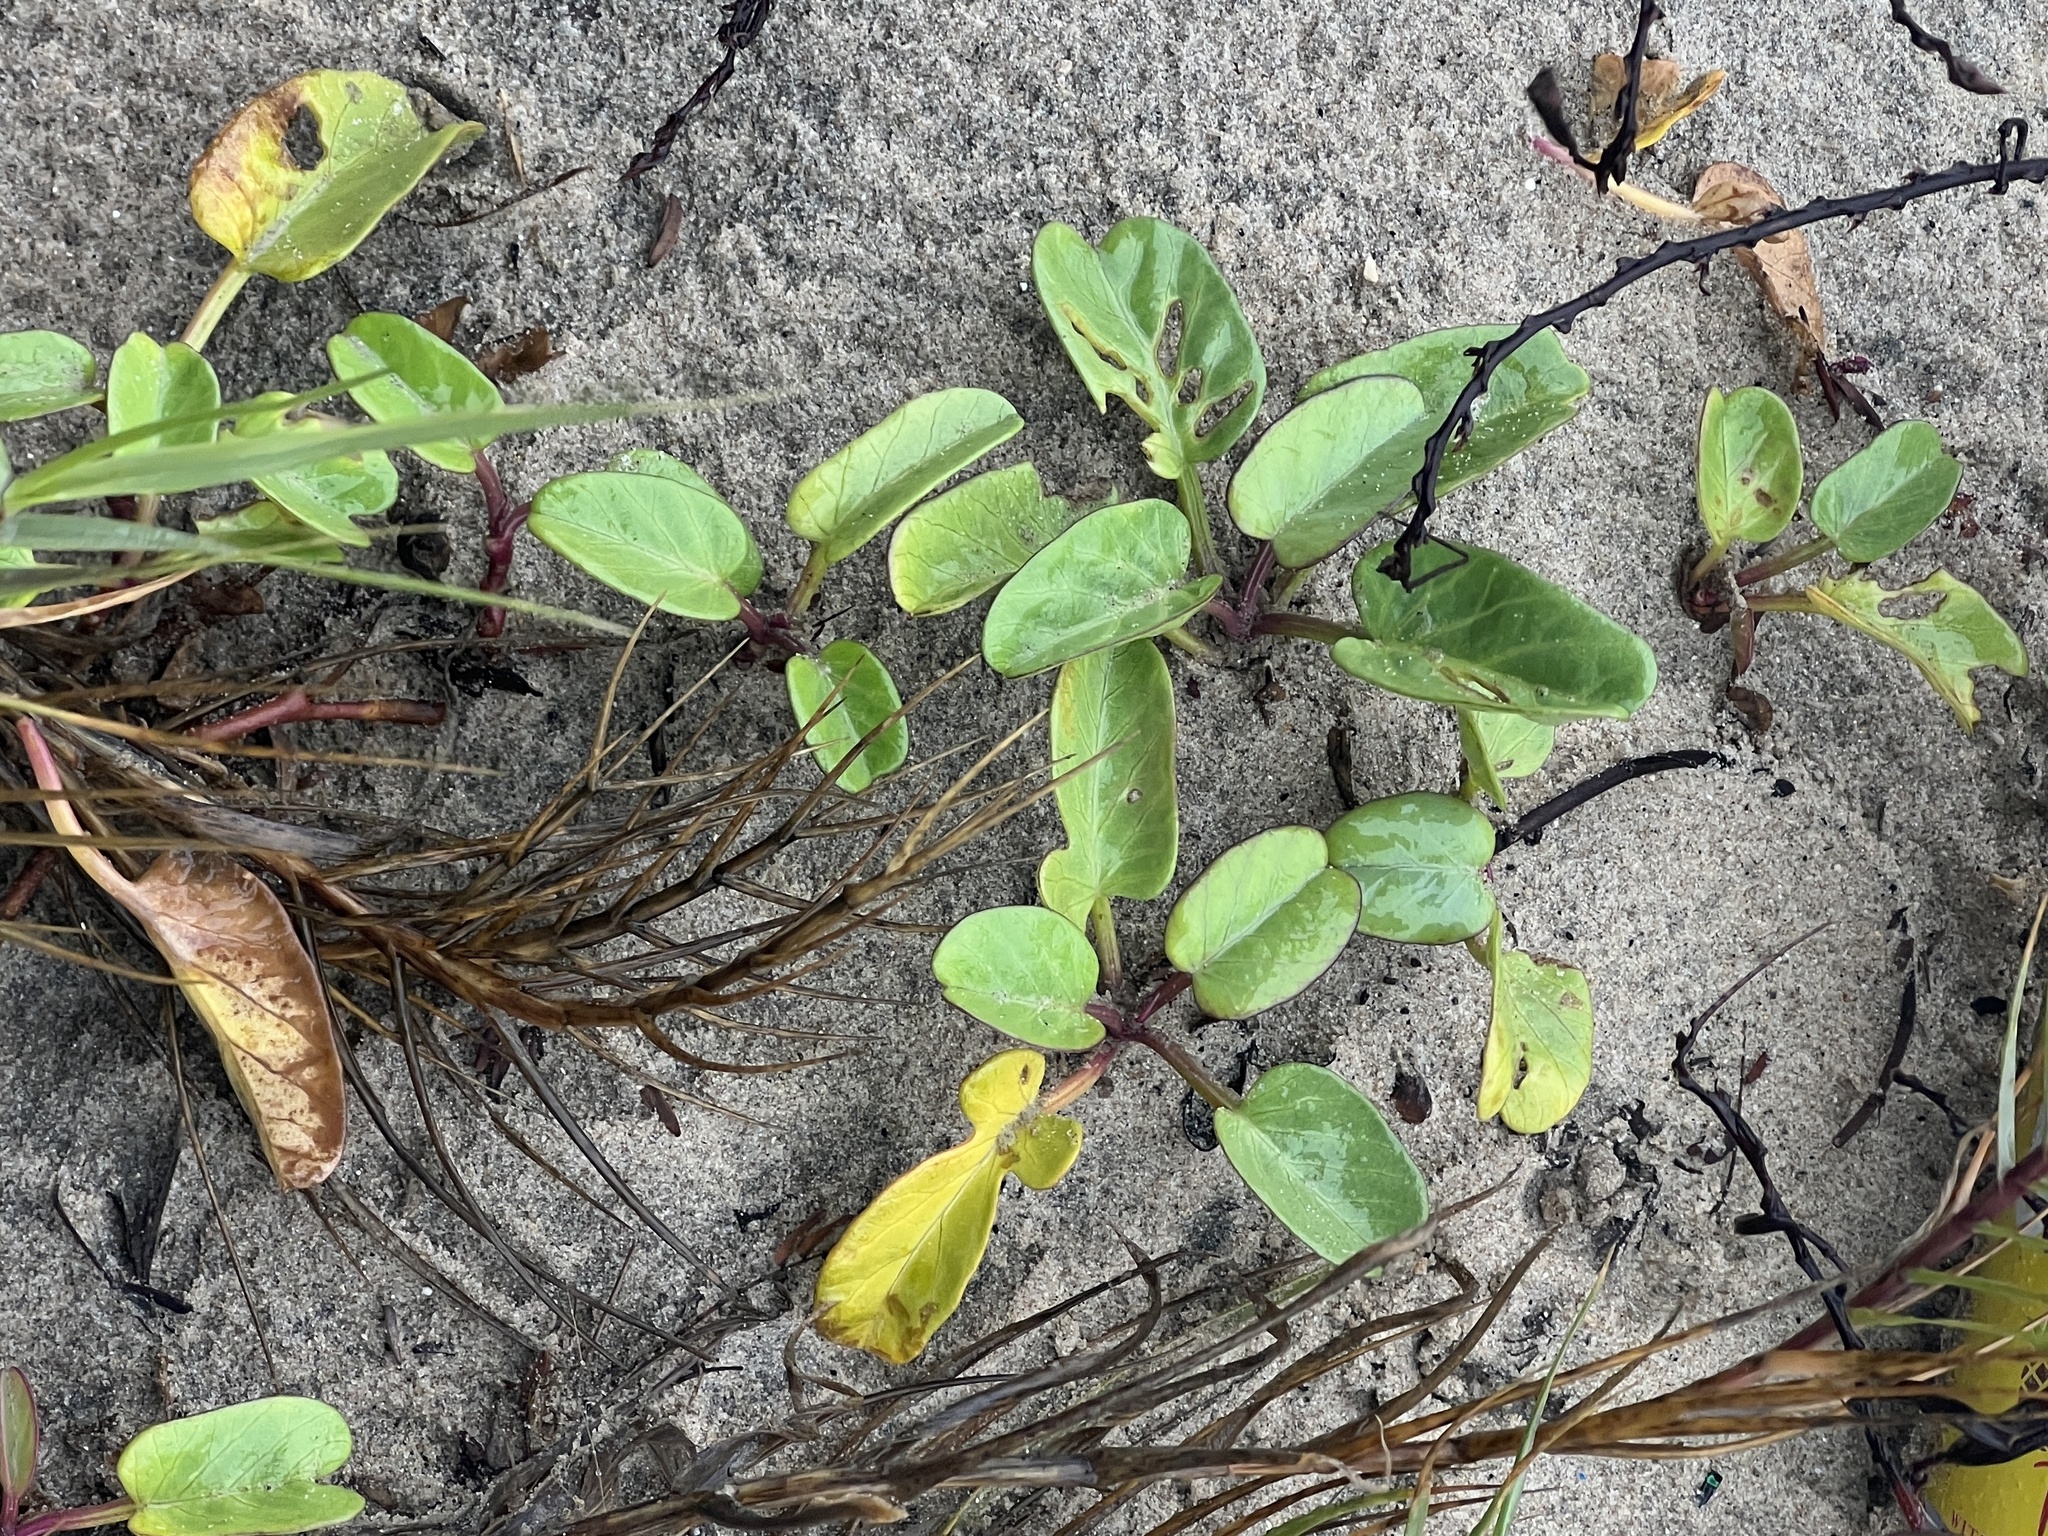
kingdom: Plantae
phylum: Tracheophyta
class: Magnoliopsida
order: Solanales
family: Convolvulaceae
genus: Ipomoea
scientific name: Ipomoea imperati
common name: Fiddle-leaf morning-glory
